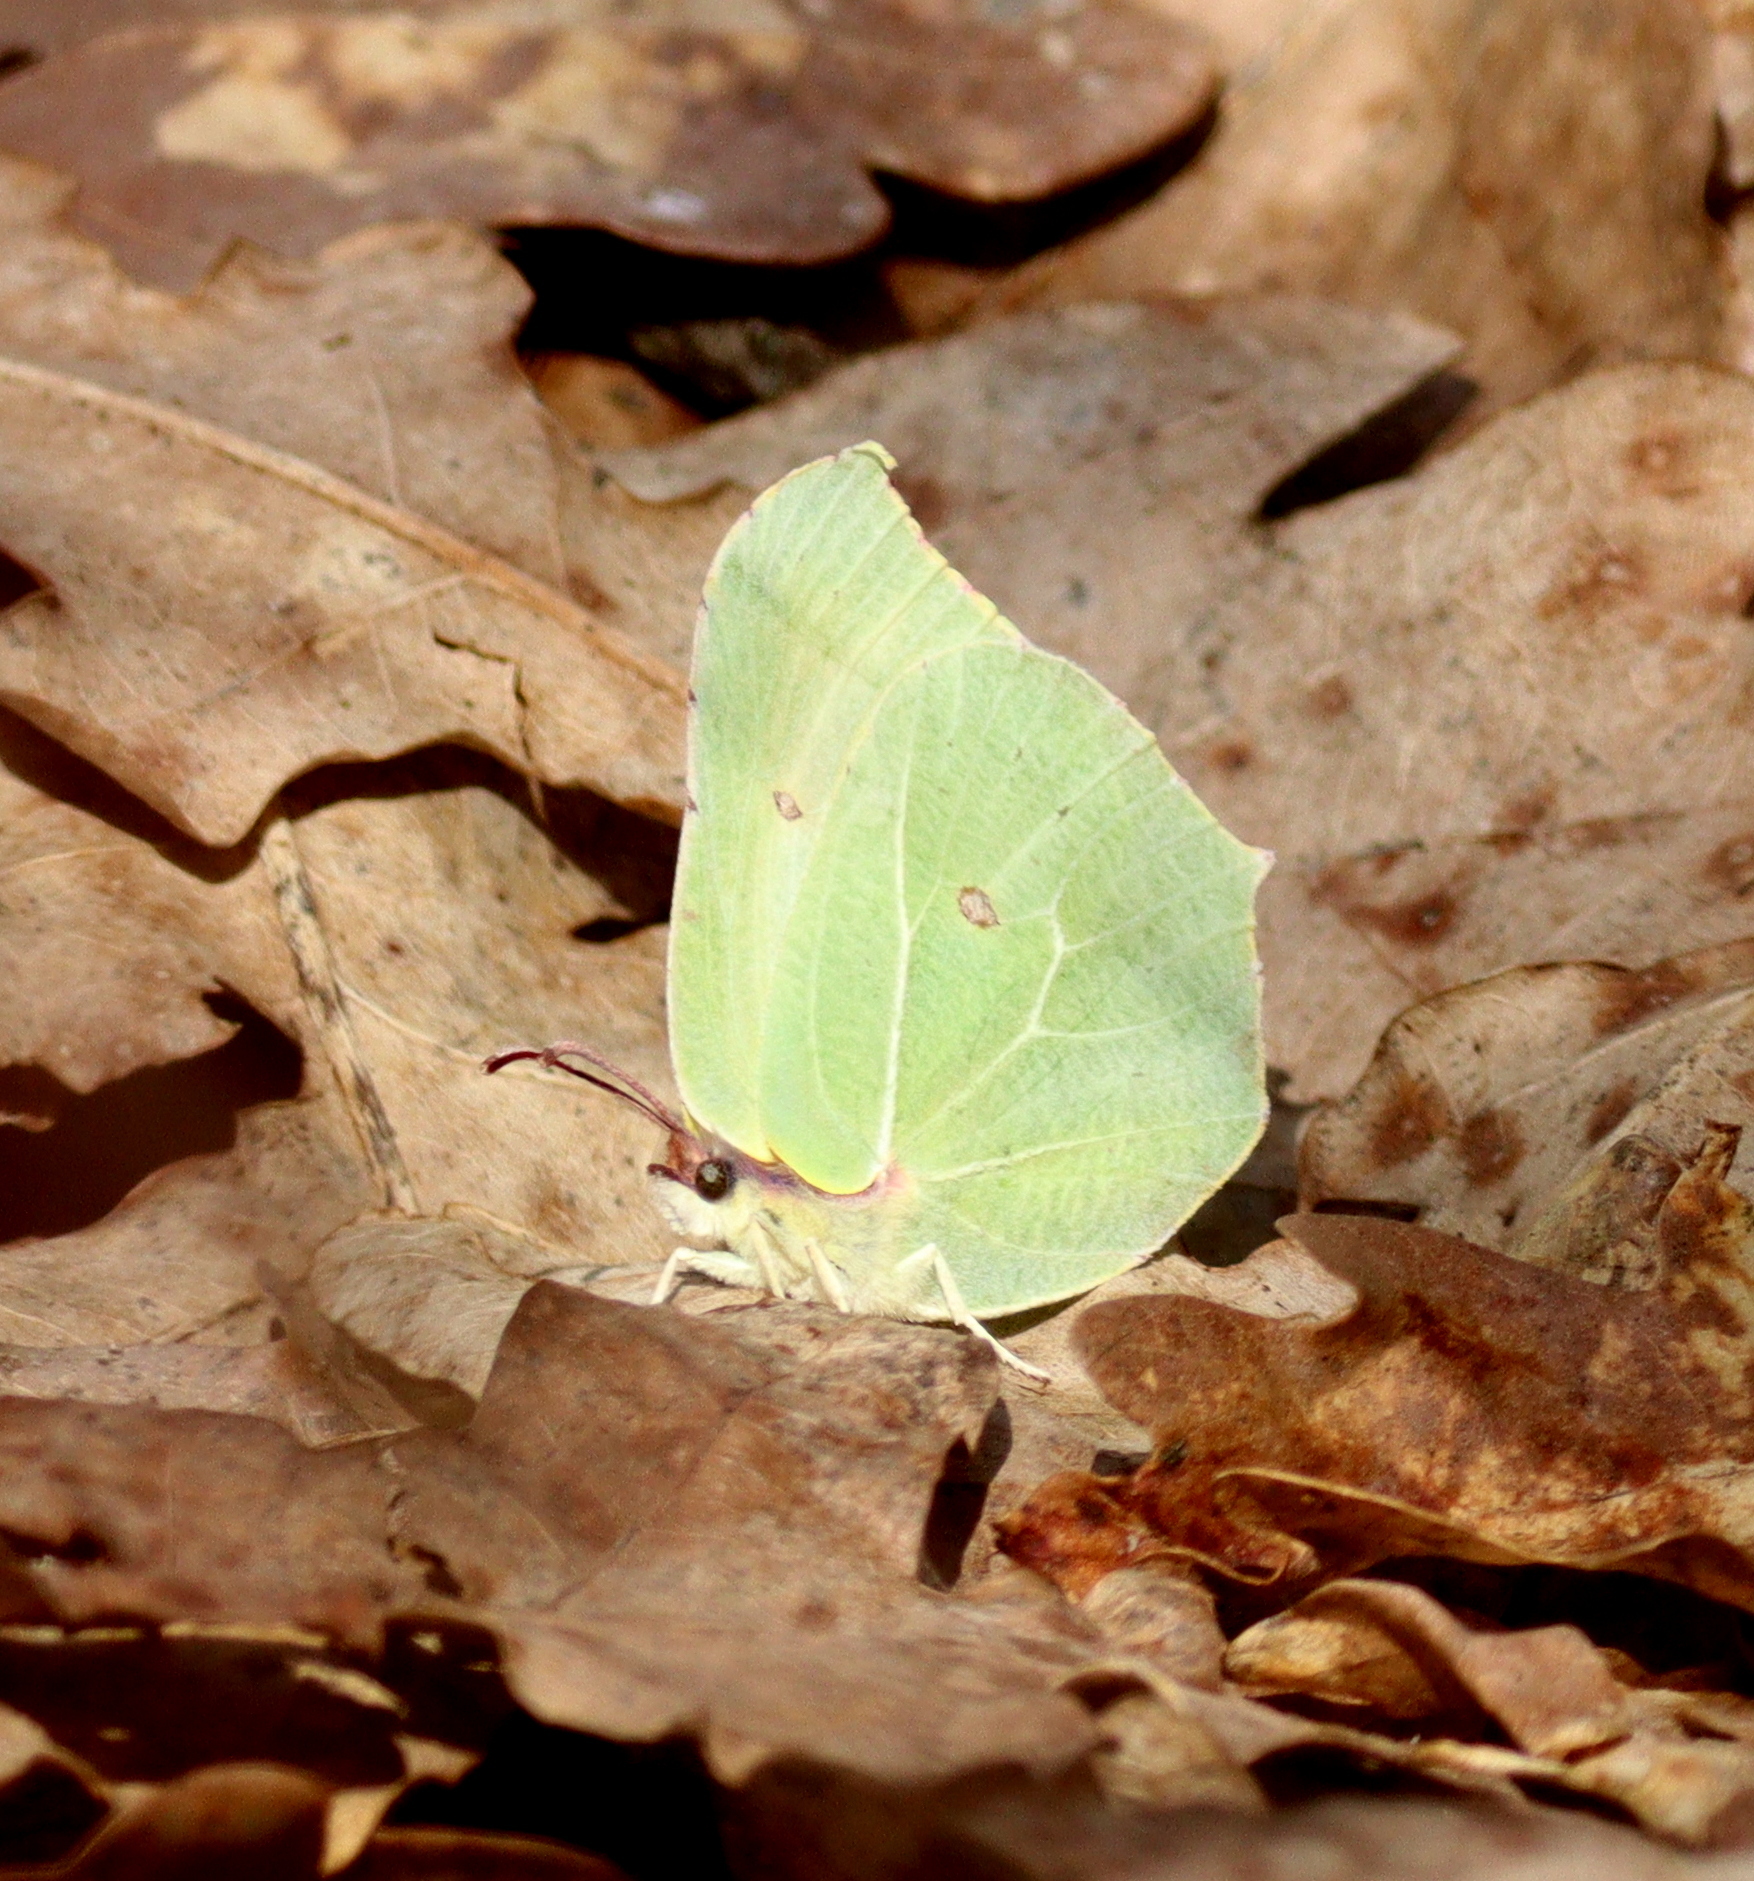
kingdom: Animalia
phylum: Arthropoda
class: Insecta
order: Lepidoptera
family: Pieridae
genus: Gonepteryx
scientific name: Gonepteryx rhamni
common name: Brimstone
